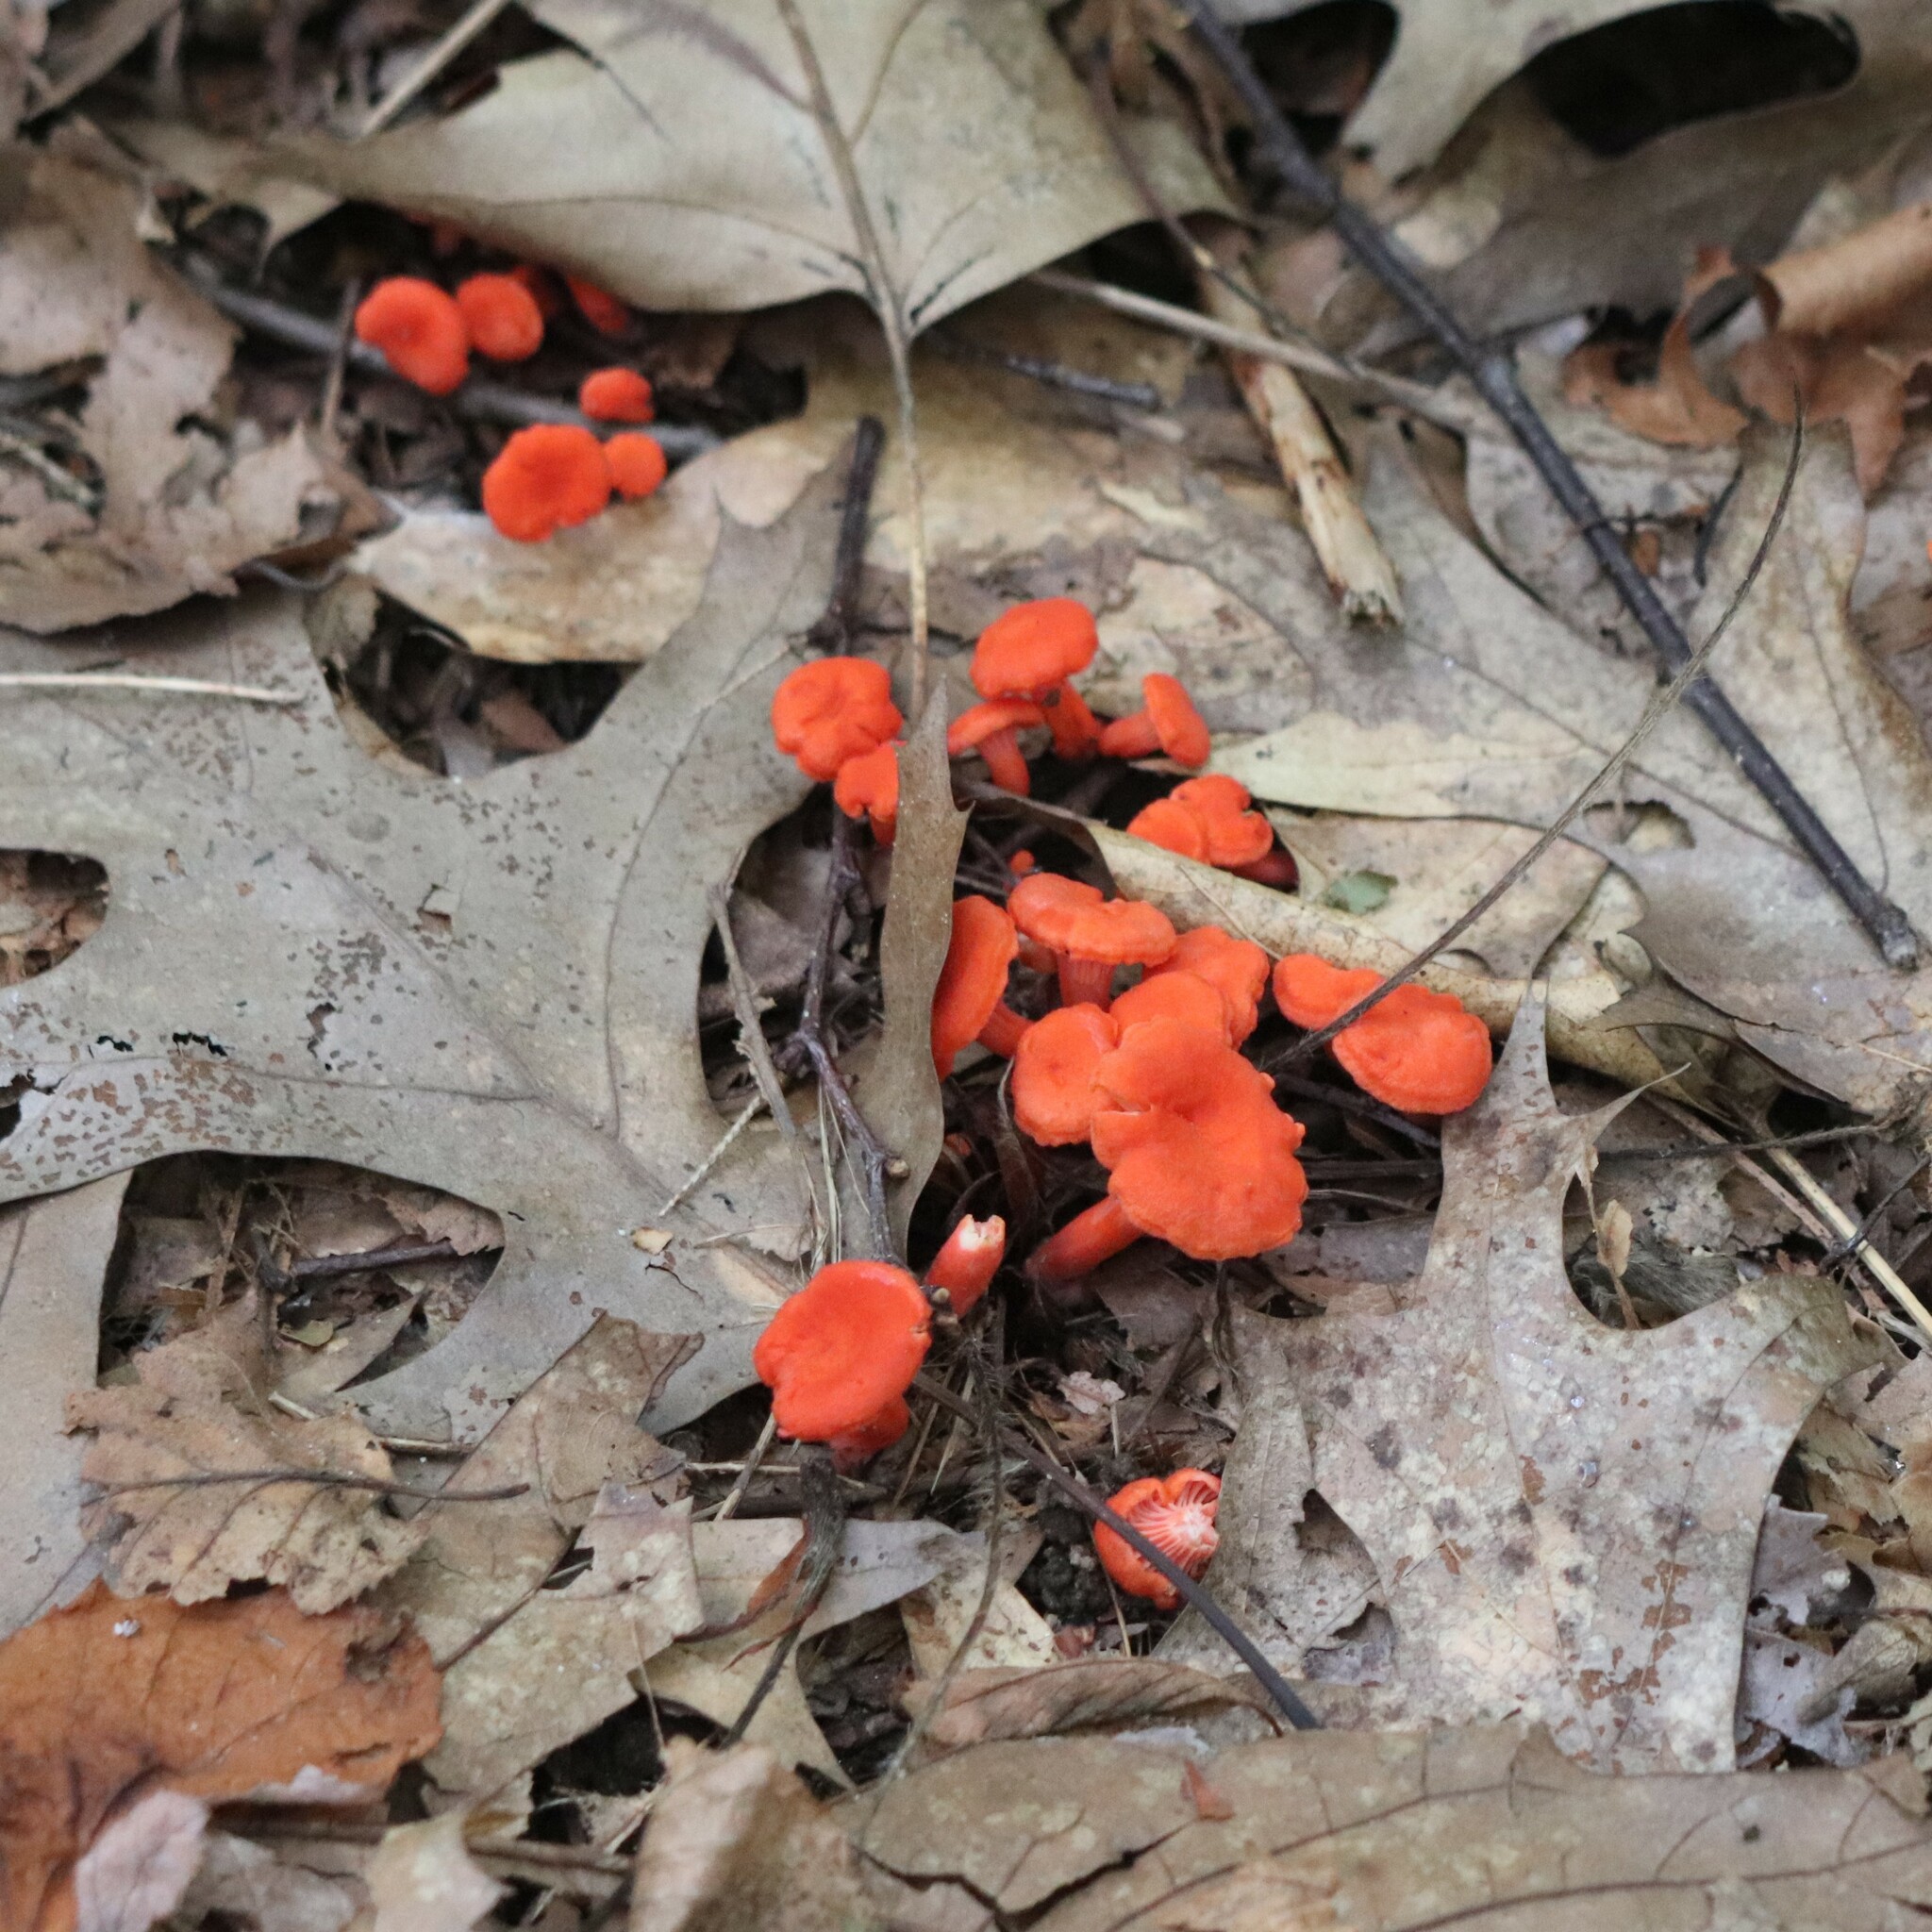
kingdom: Fungi
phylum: Basidiomycota
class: Agaricomycetes
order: Cantharellales
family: Hydnaceae
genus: Cantharellus
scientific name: Cantharellus cinnabarinus
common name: Cinnabar chanterelle
